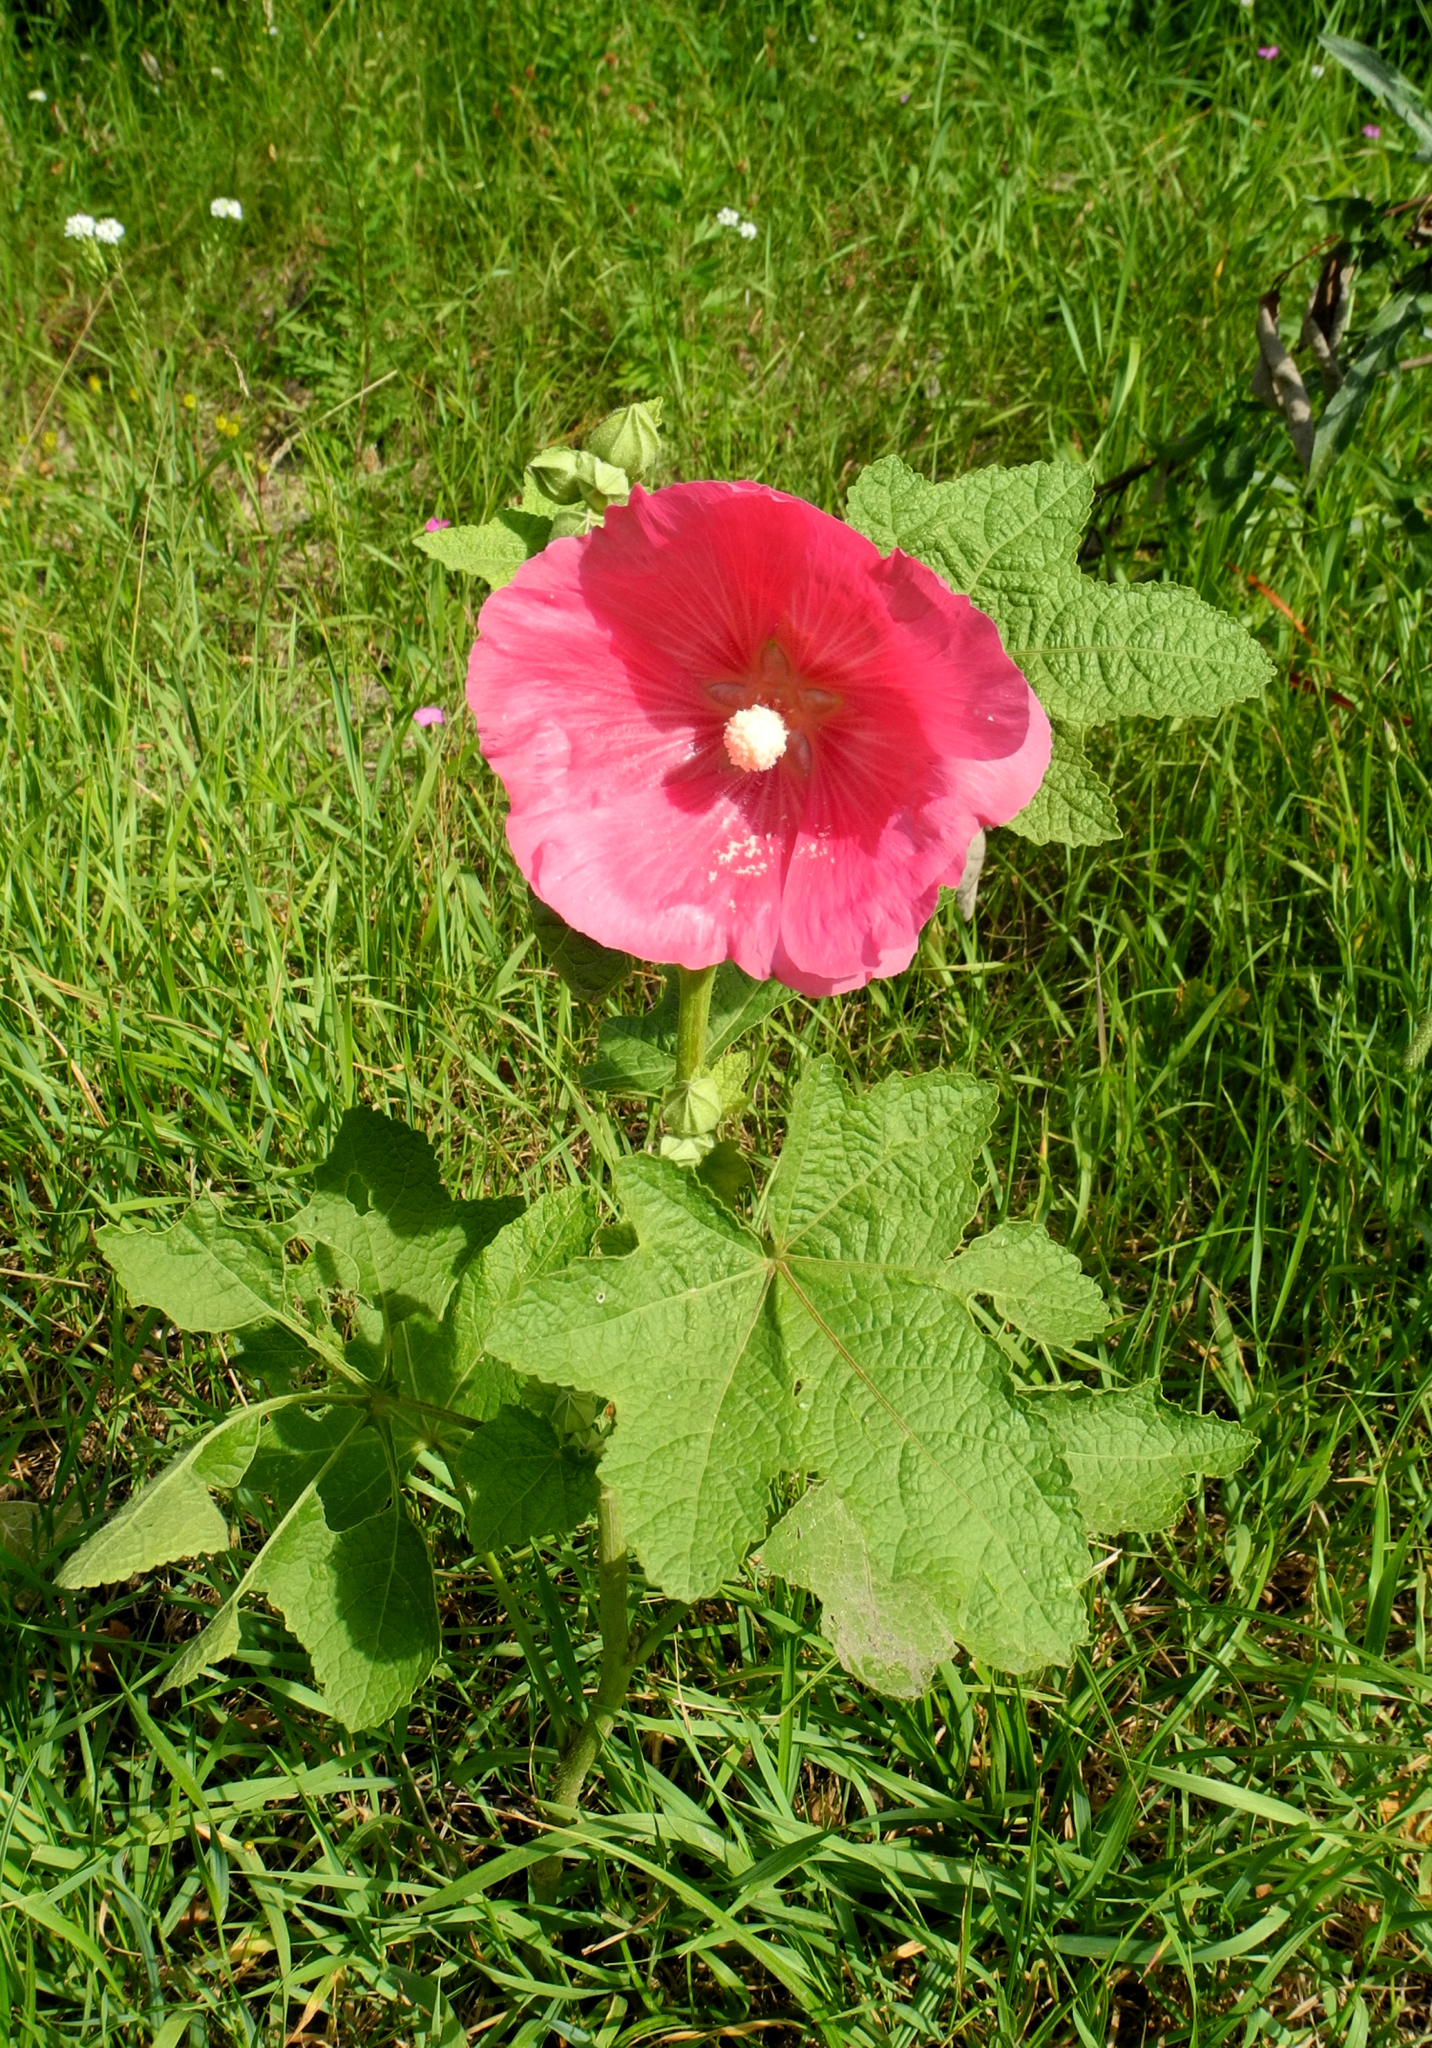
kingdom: Plantae
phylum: Tracheophyta
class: Magnoliopsida
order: Malvales
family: Malvaceae
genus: Alcea
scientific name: Alcea rosea
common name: Hollyhock
